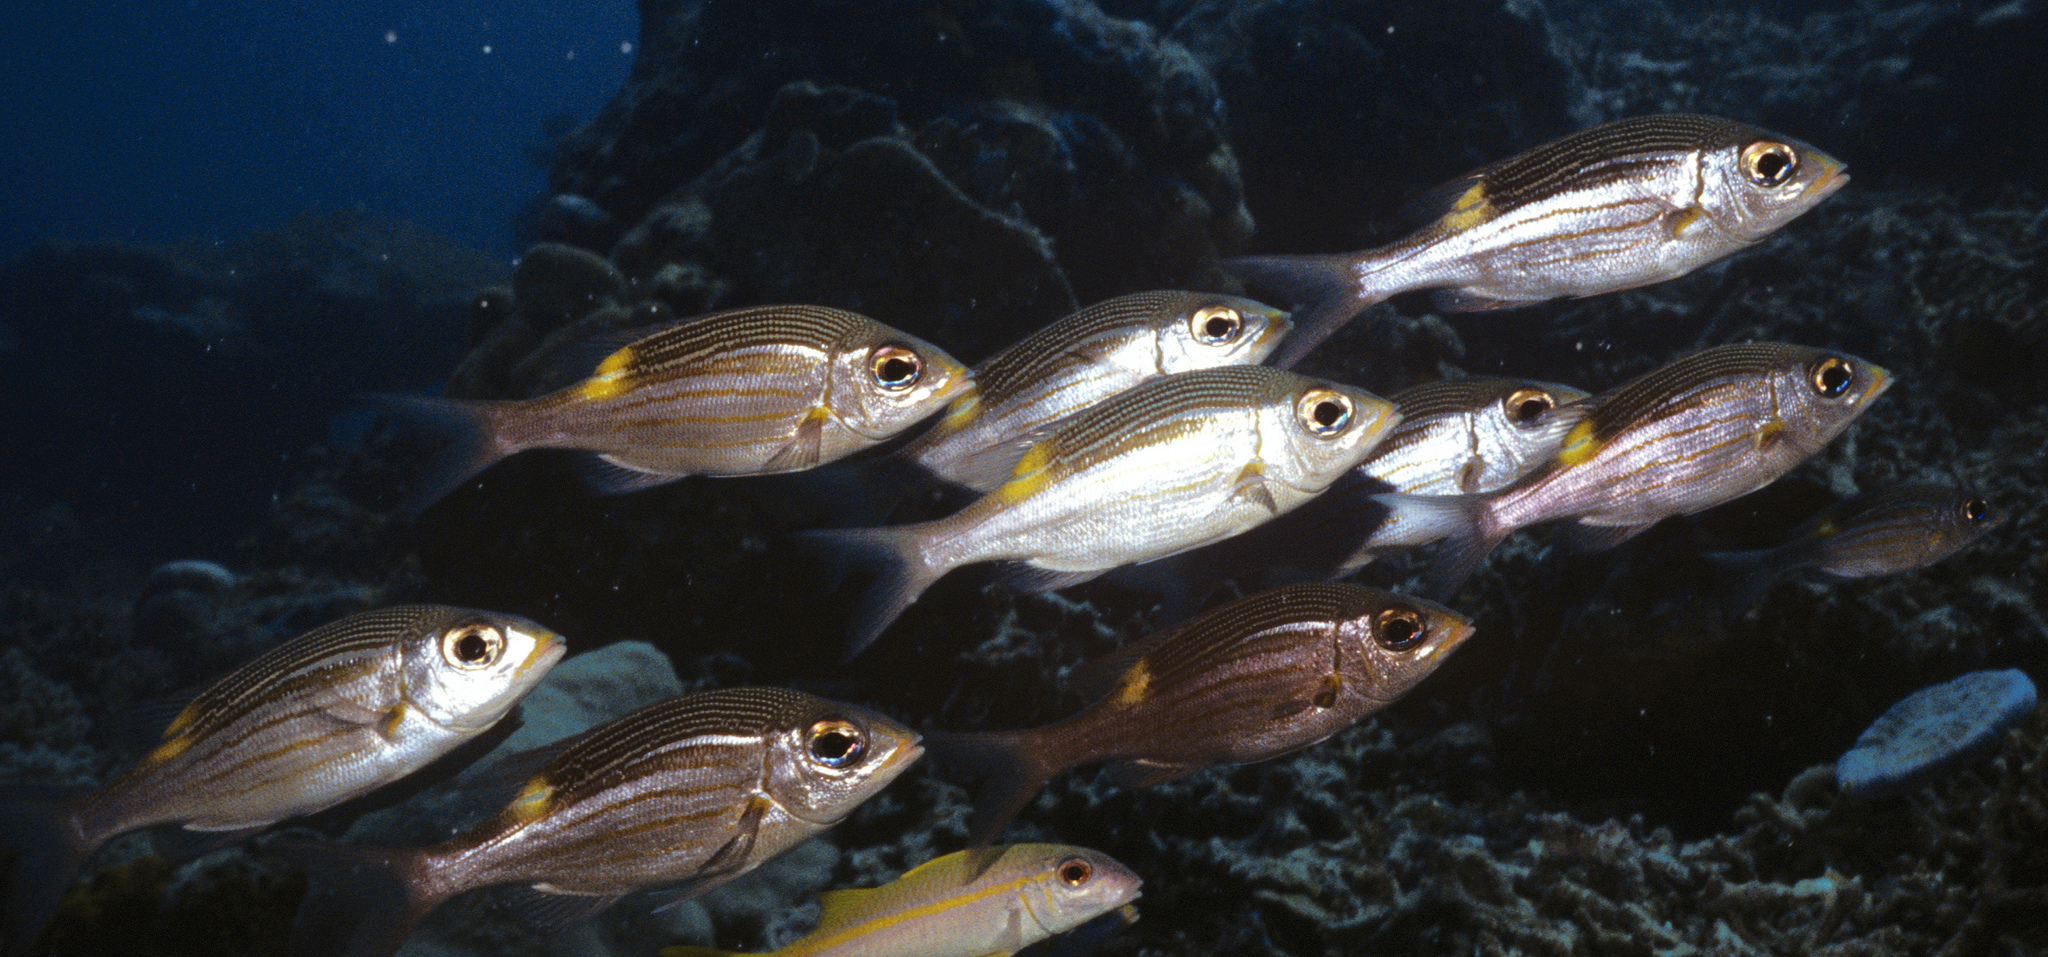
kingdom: Animalia
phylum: Chordata
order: Perciformes
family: Lethrinidae
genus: Gnathodentex
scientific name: Gnathodentex aureolineatus
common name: Gold-lined sea bream
